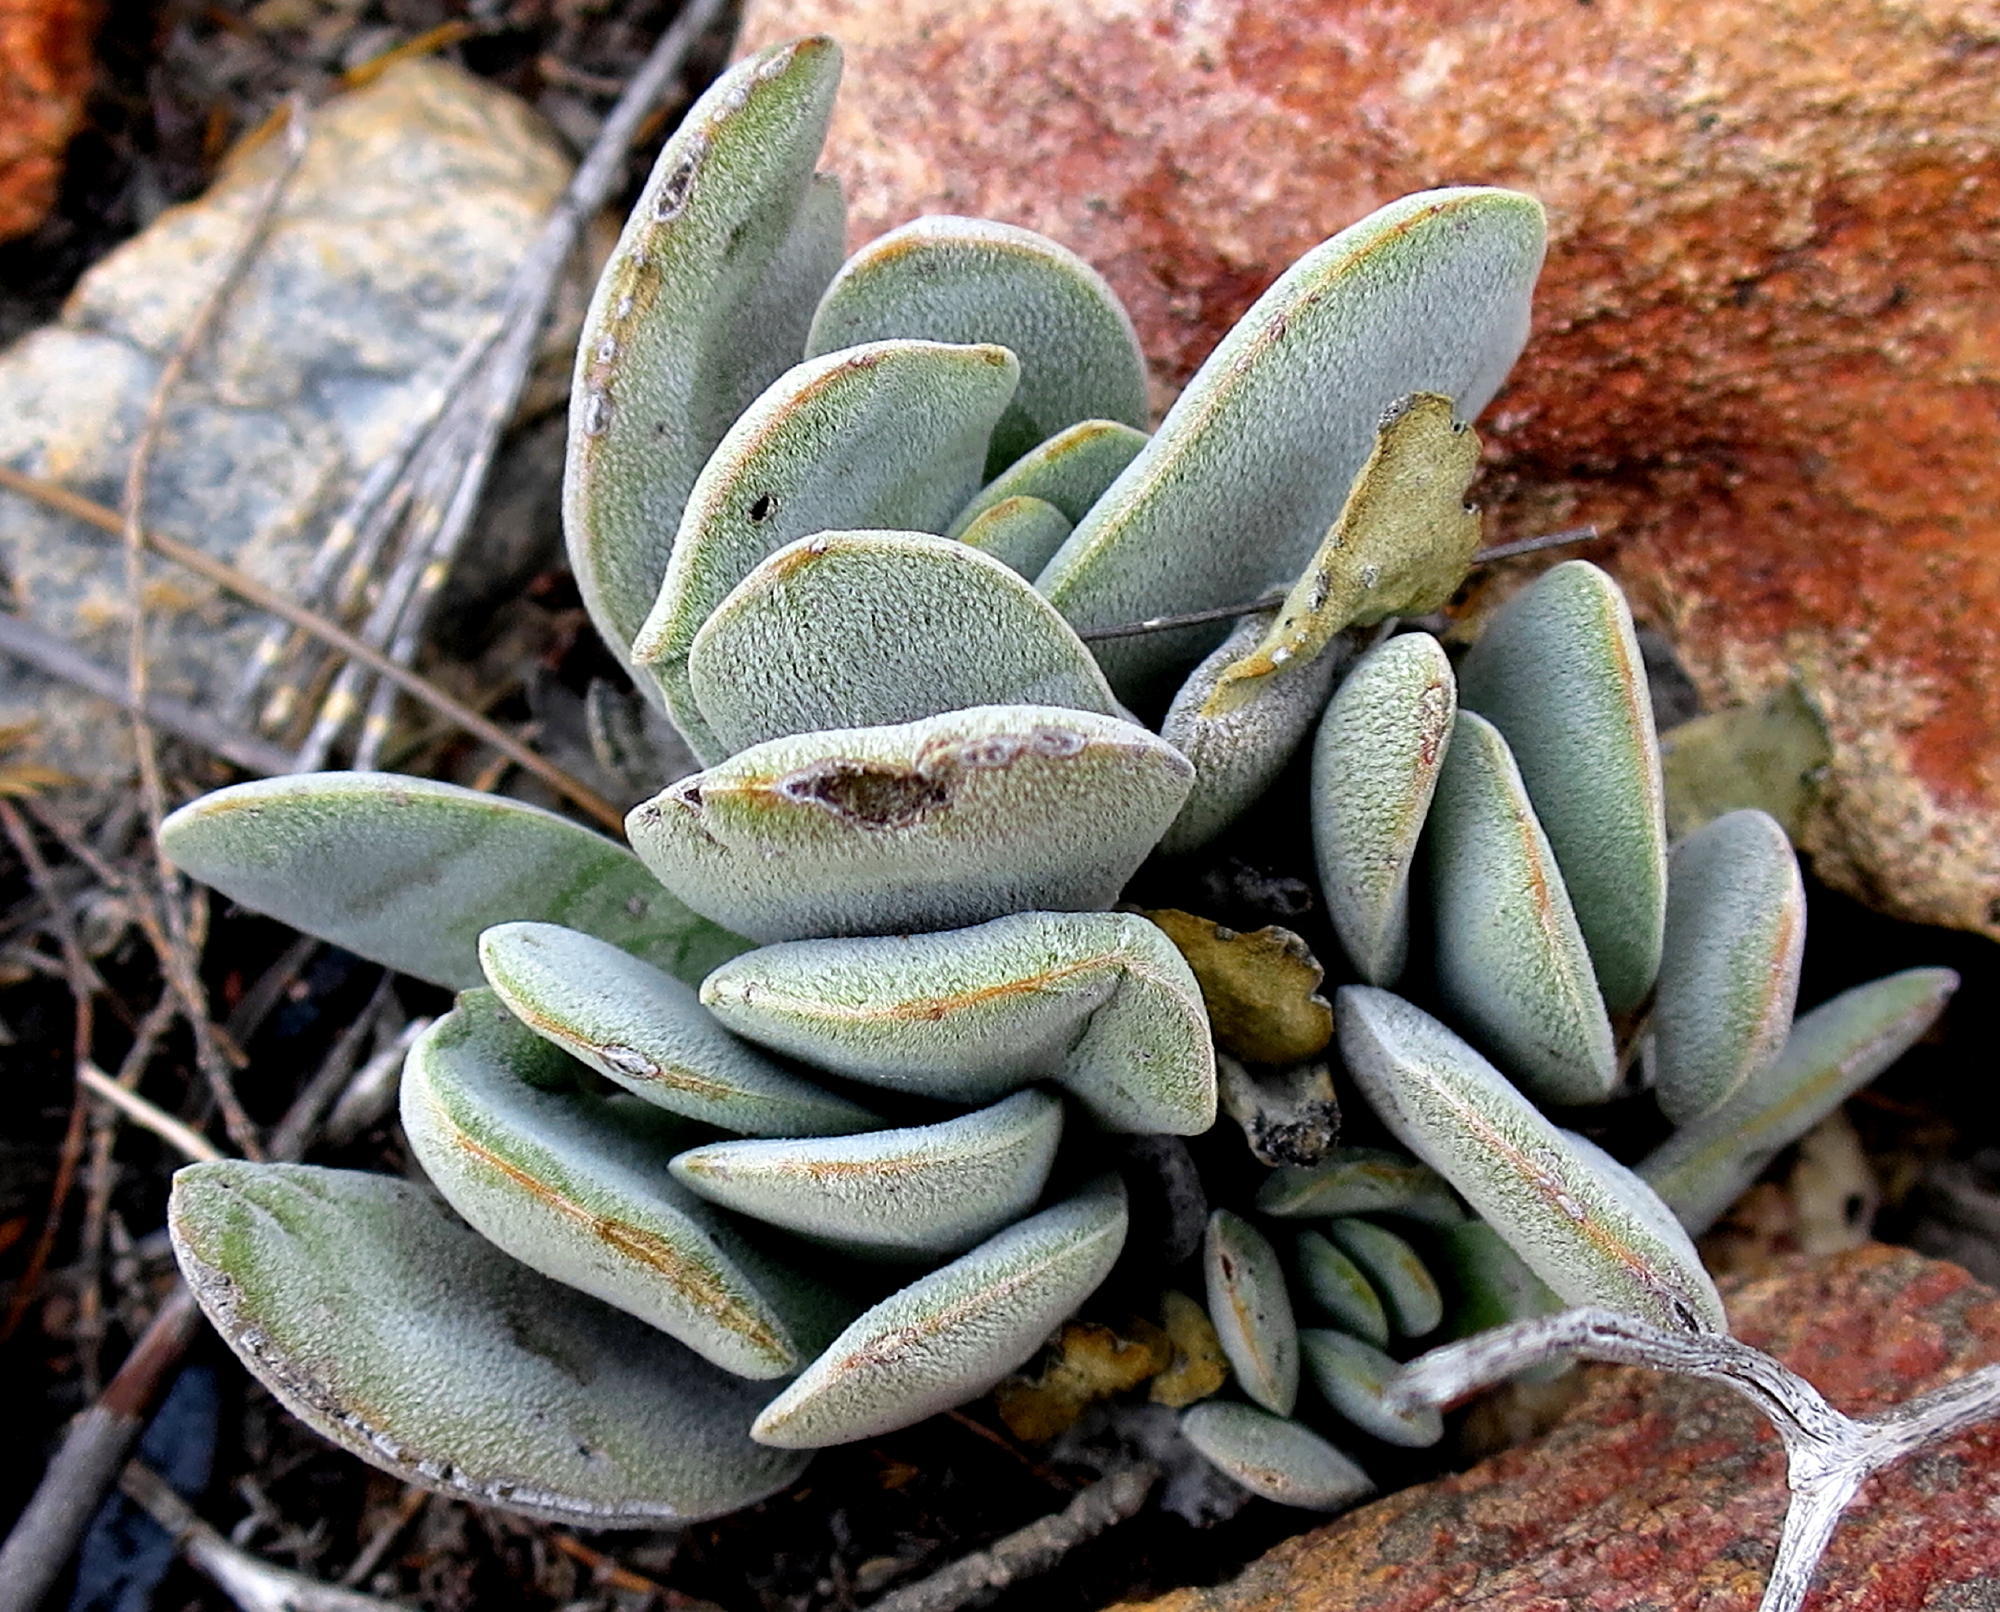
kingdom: Plantae
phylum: Tracheophyta
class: Magnoliopsida
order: Saxifragales
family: Crassulaceae
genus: Crassula
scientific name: Crassula nudicaulis
